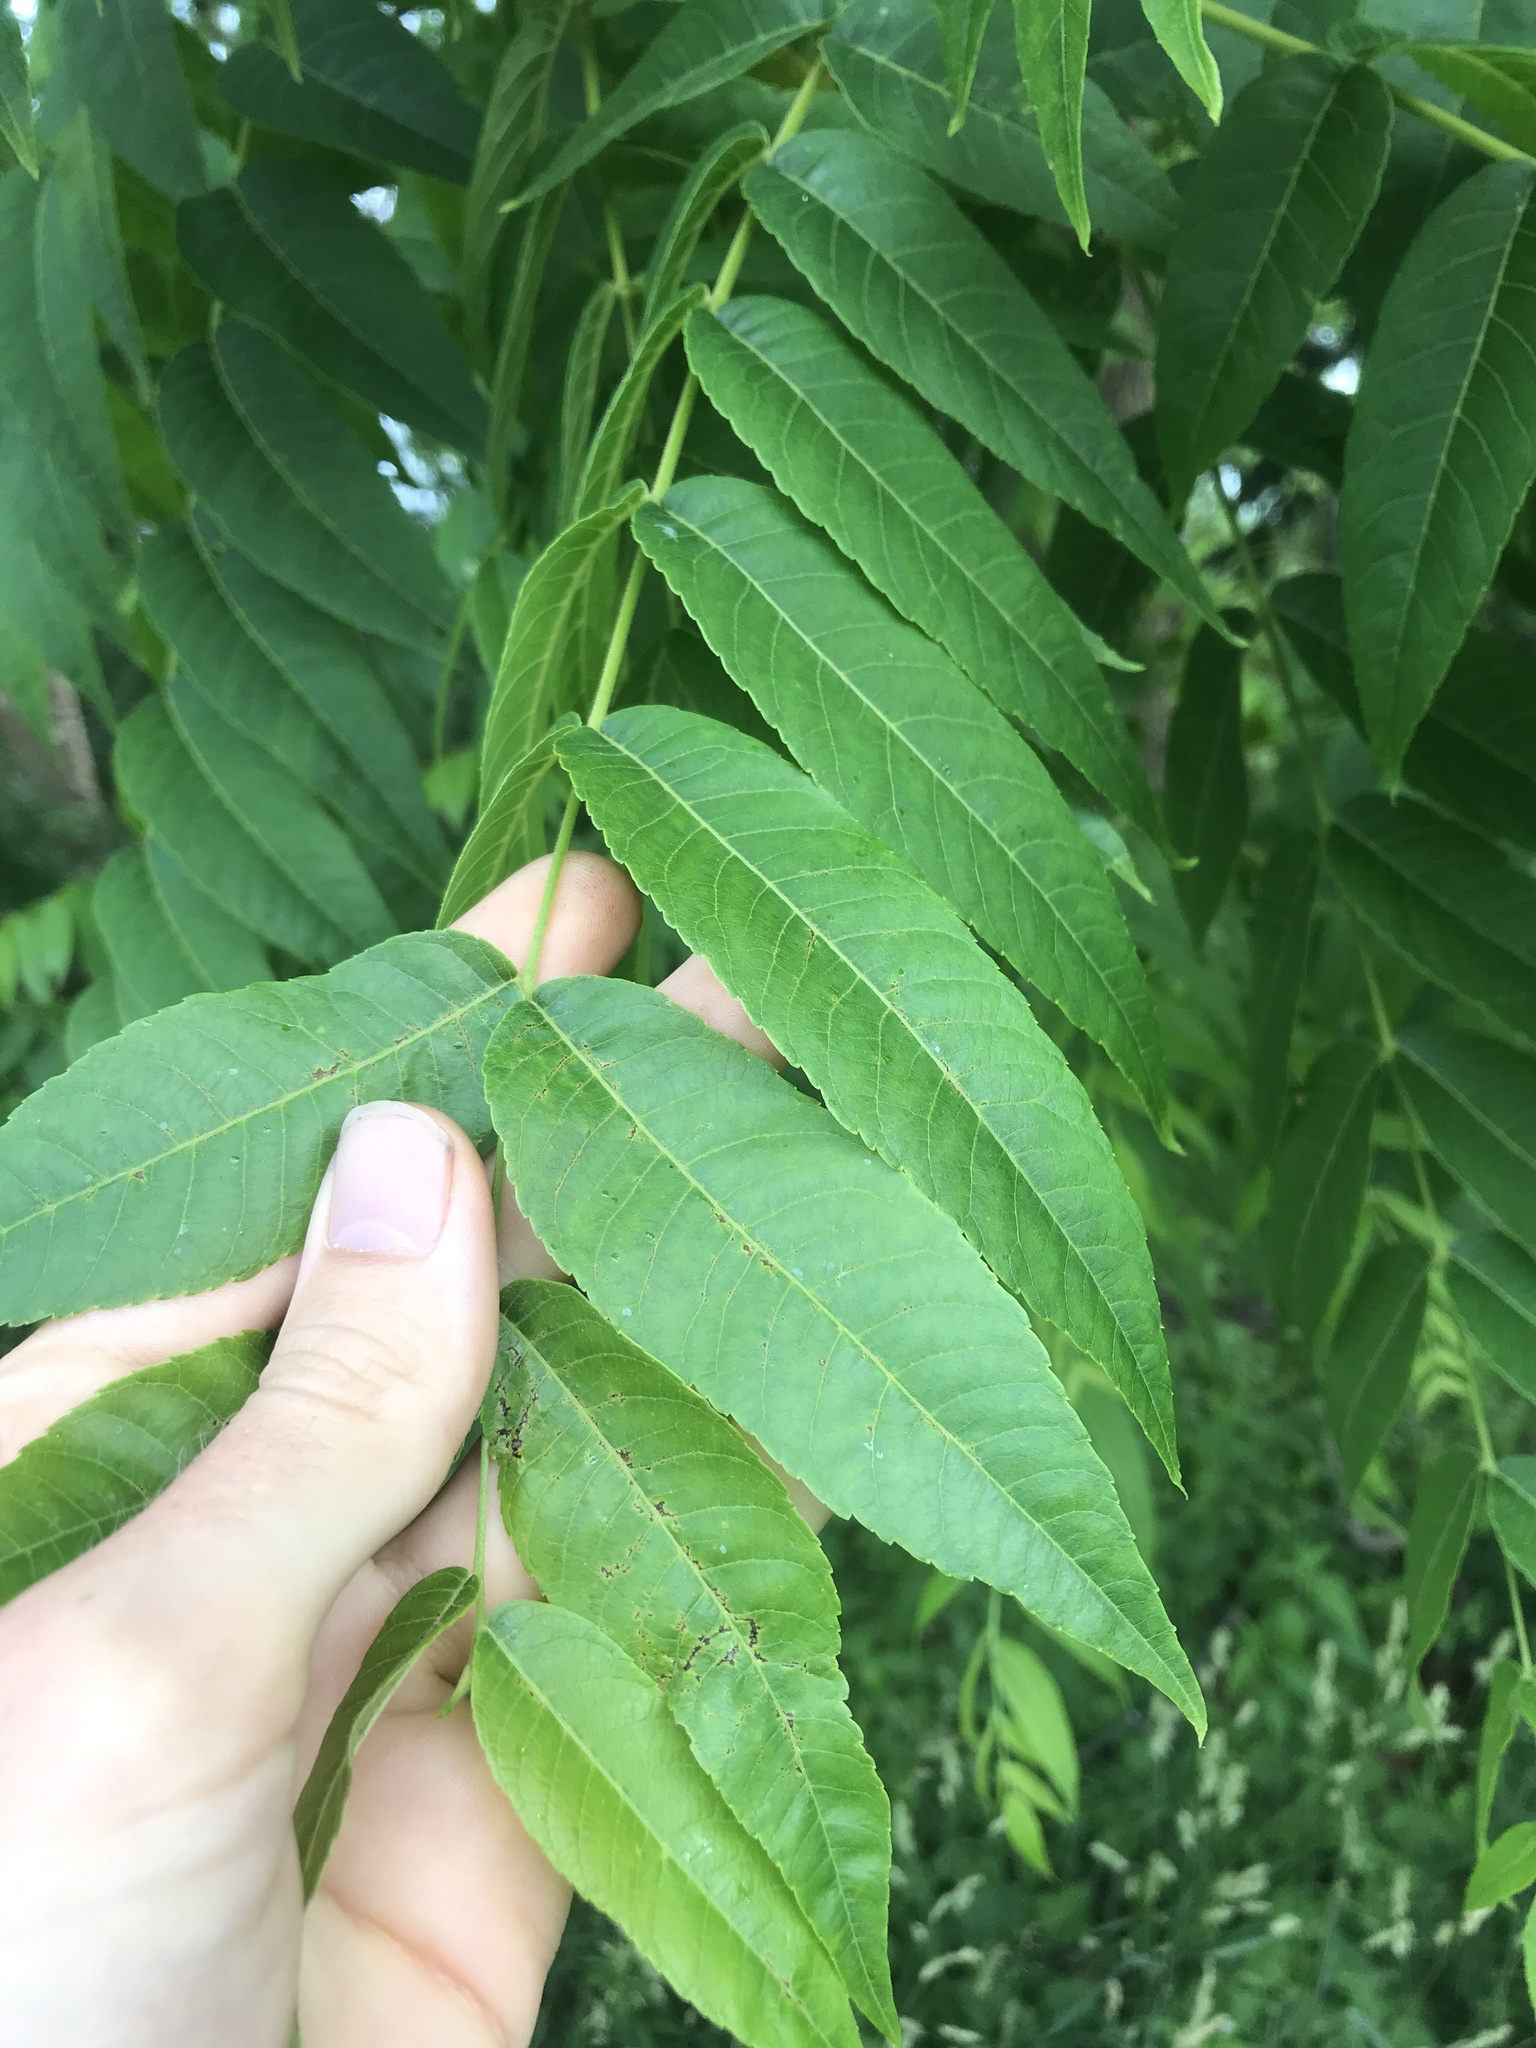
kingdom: Plantae
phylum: Tracheophyta
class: Magnoliopsida
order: Fagales
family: Juglandaceae
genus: Juglans
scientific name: Juglans nigra
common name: Black walnut
